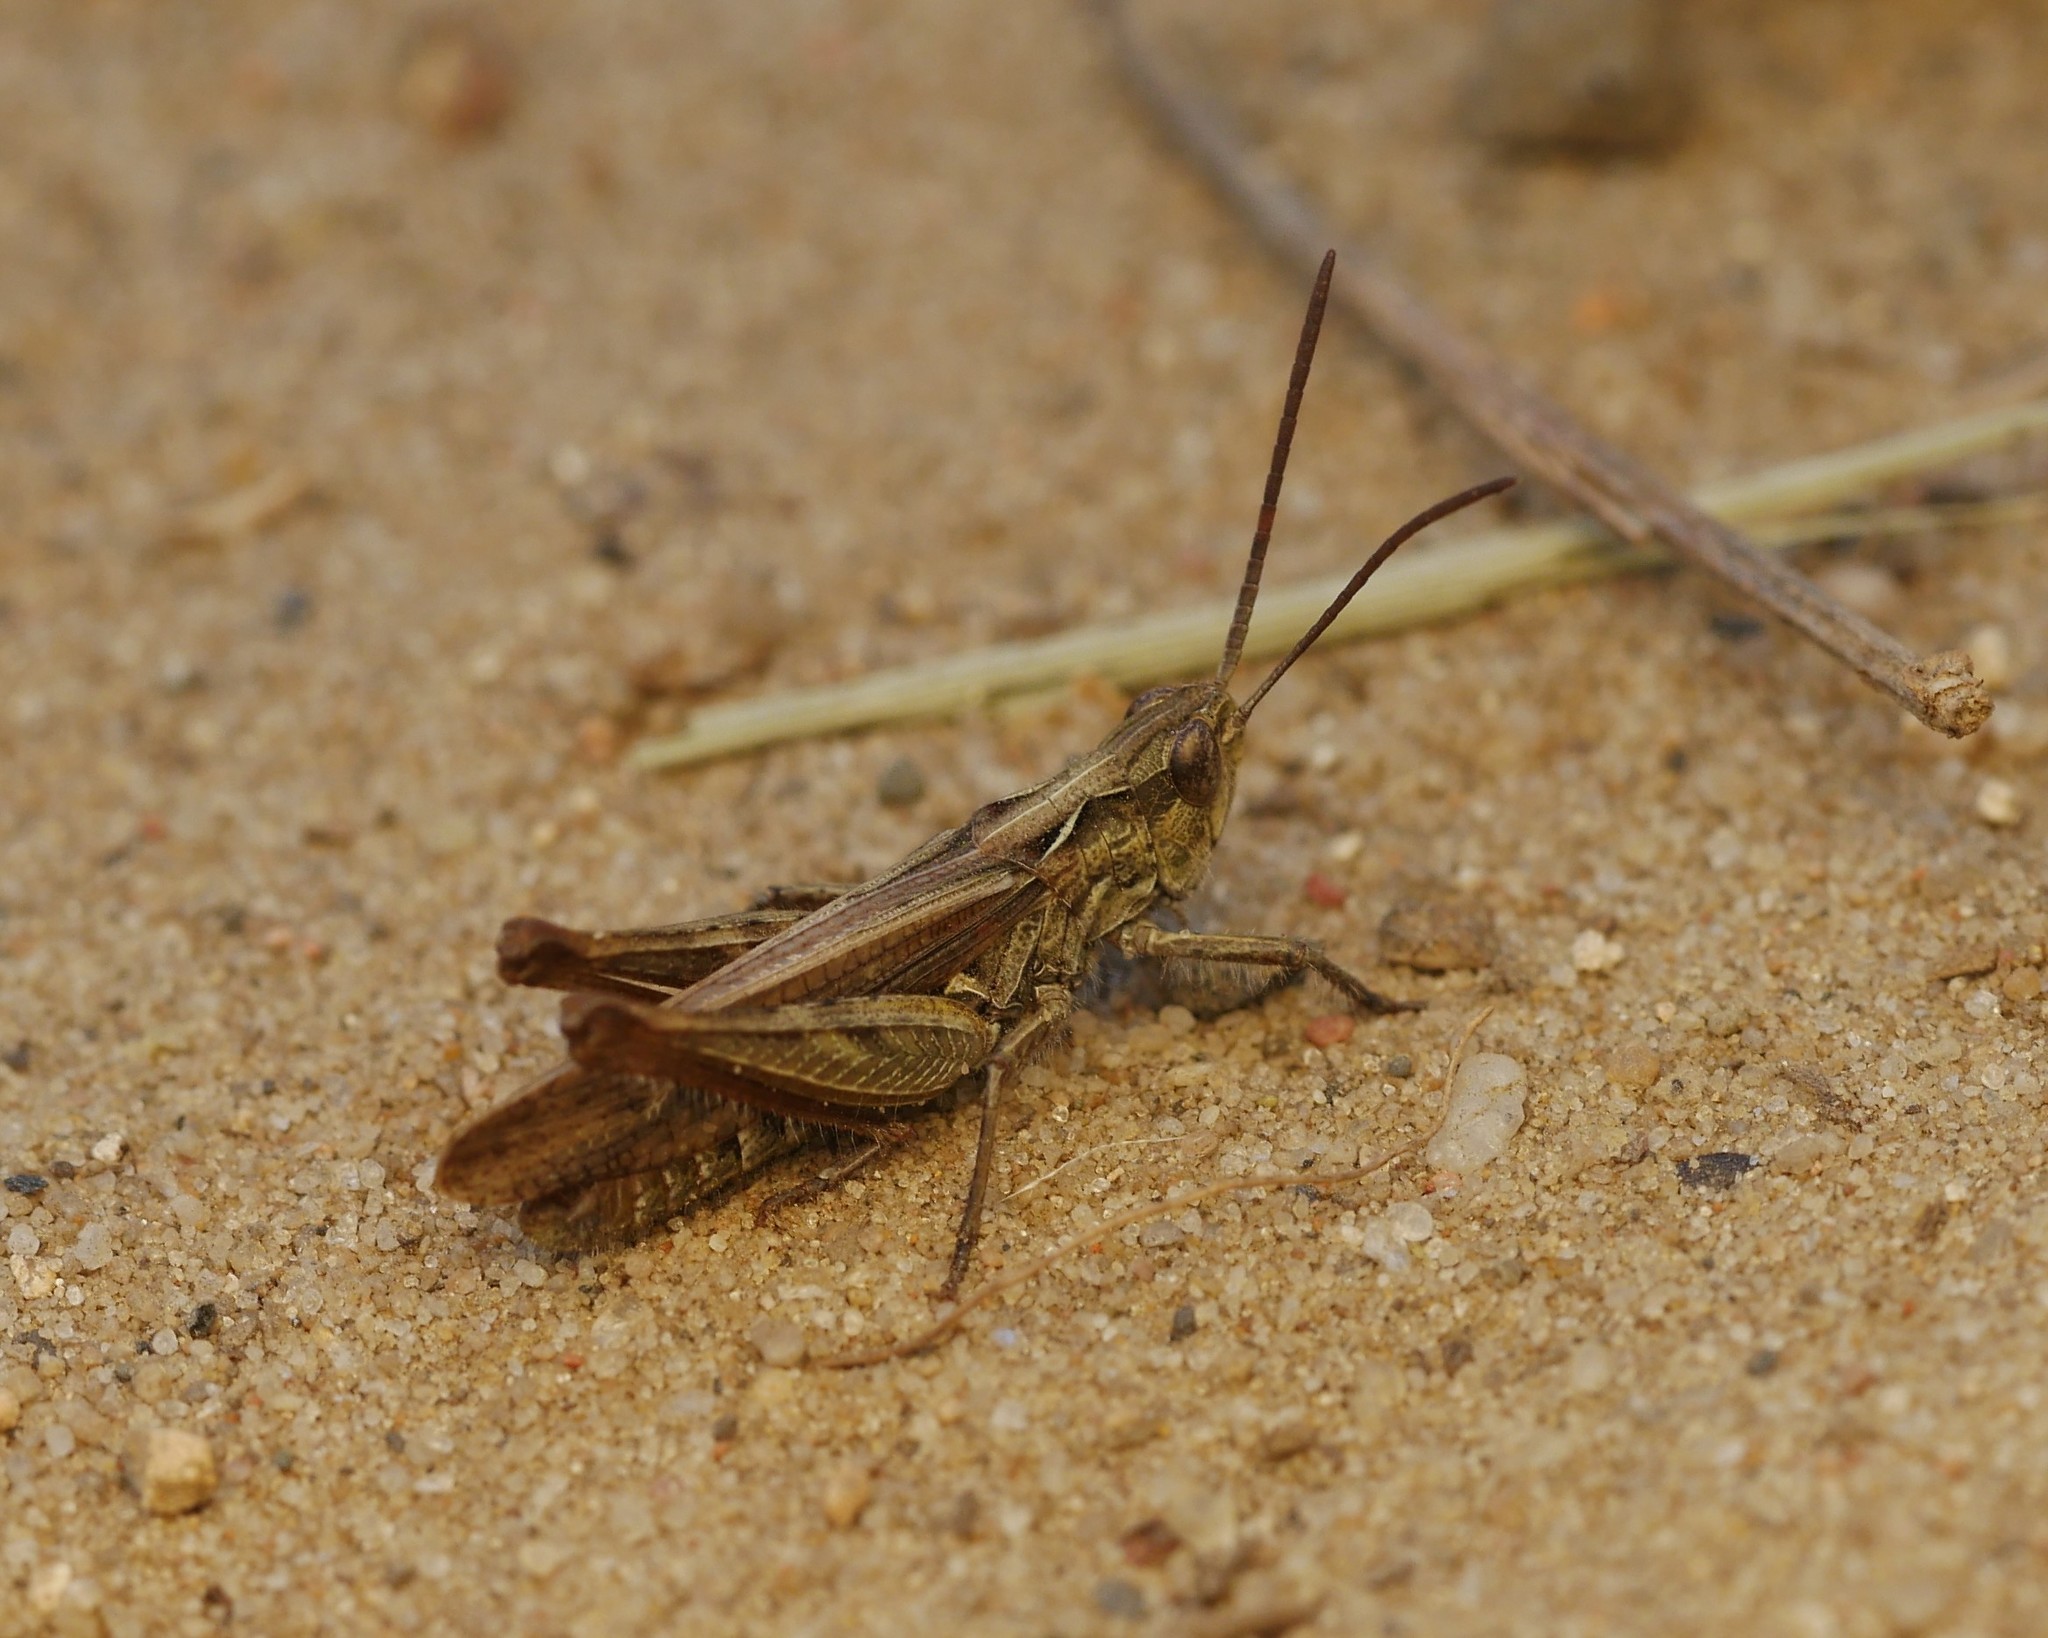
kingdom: Animalia
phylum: Arthropoda
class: Insecta
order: Orthoptera
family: Acrididae
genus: Chorthippus
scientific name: Chorthippus mollis
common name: Lesser field grasshopper
